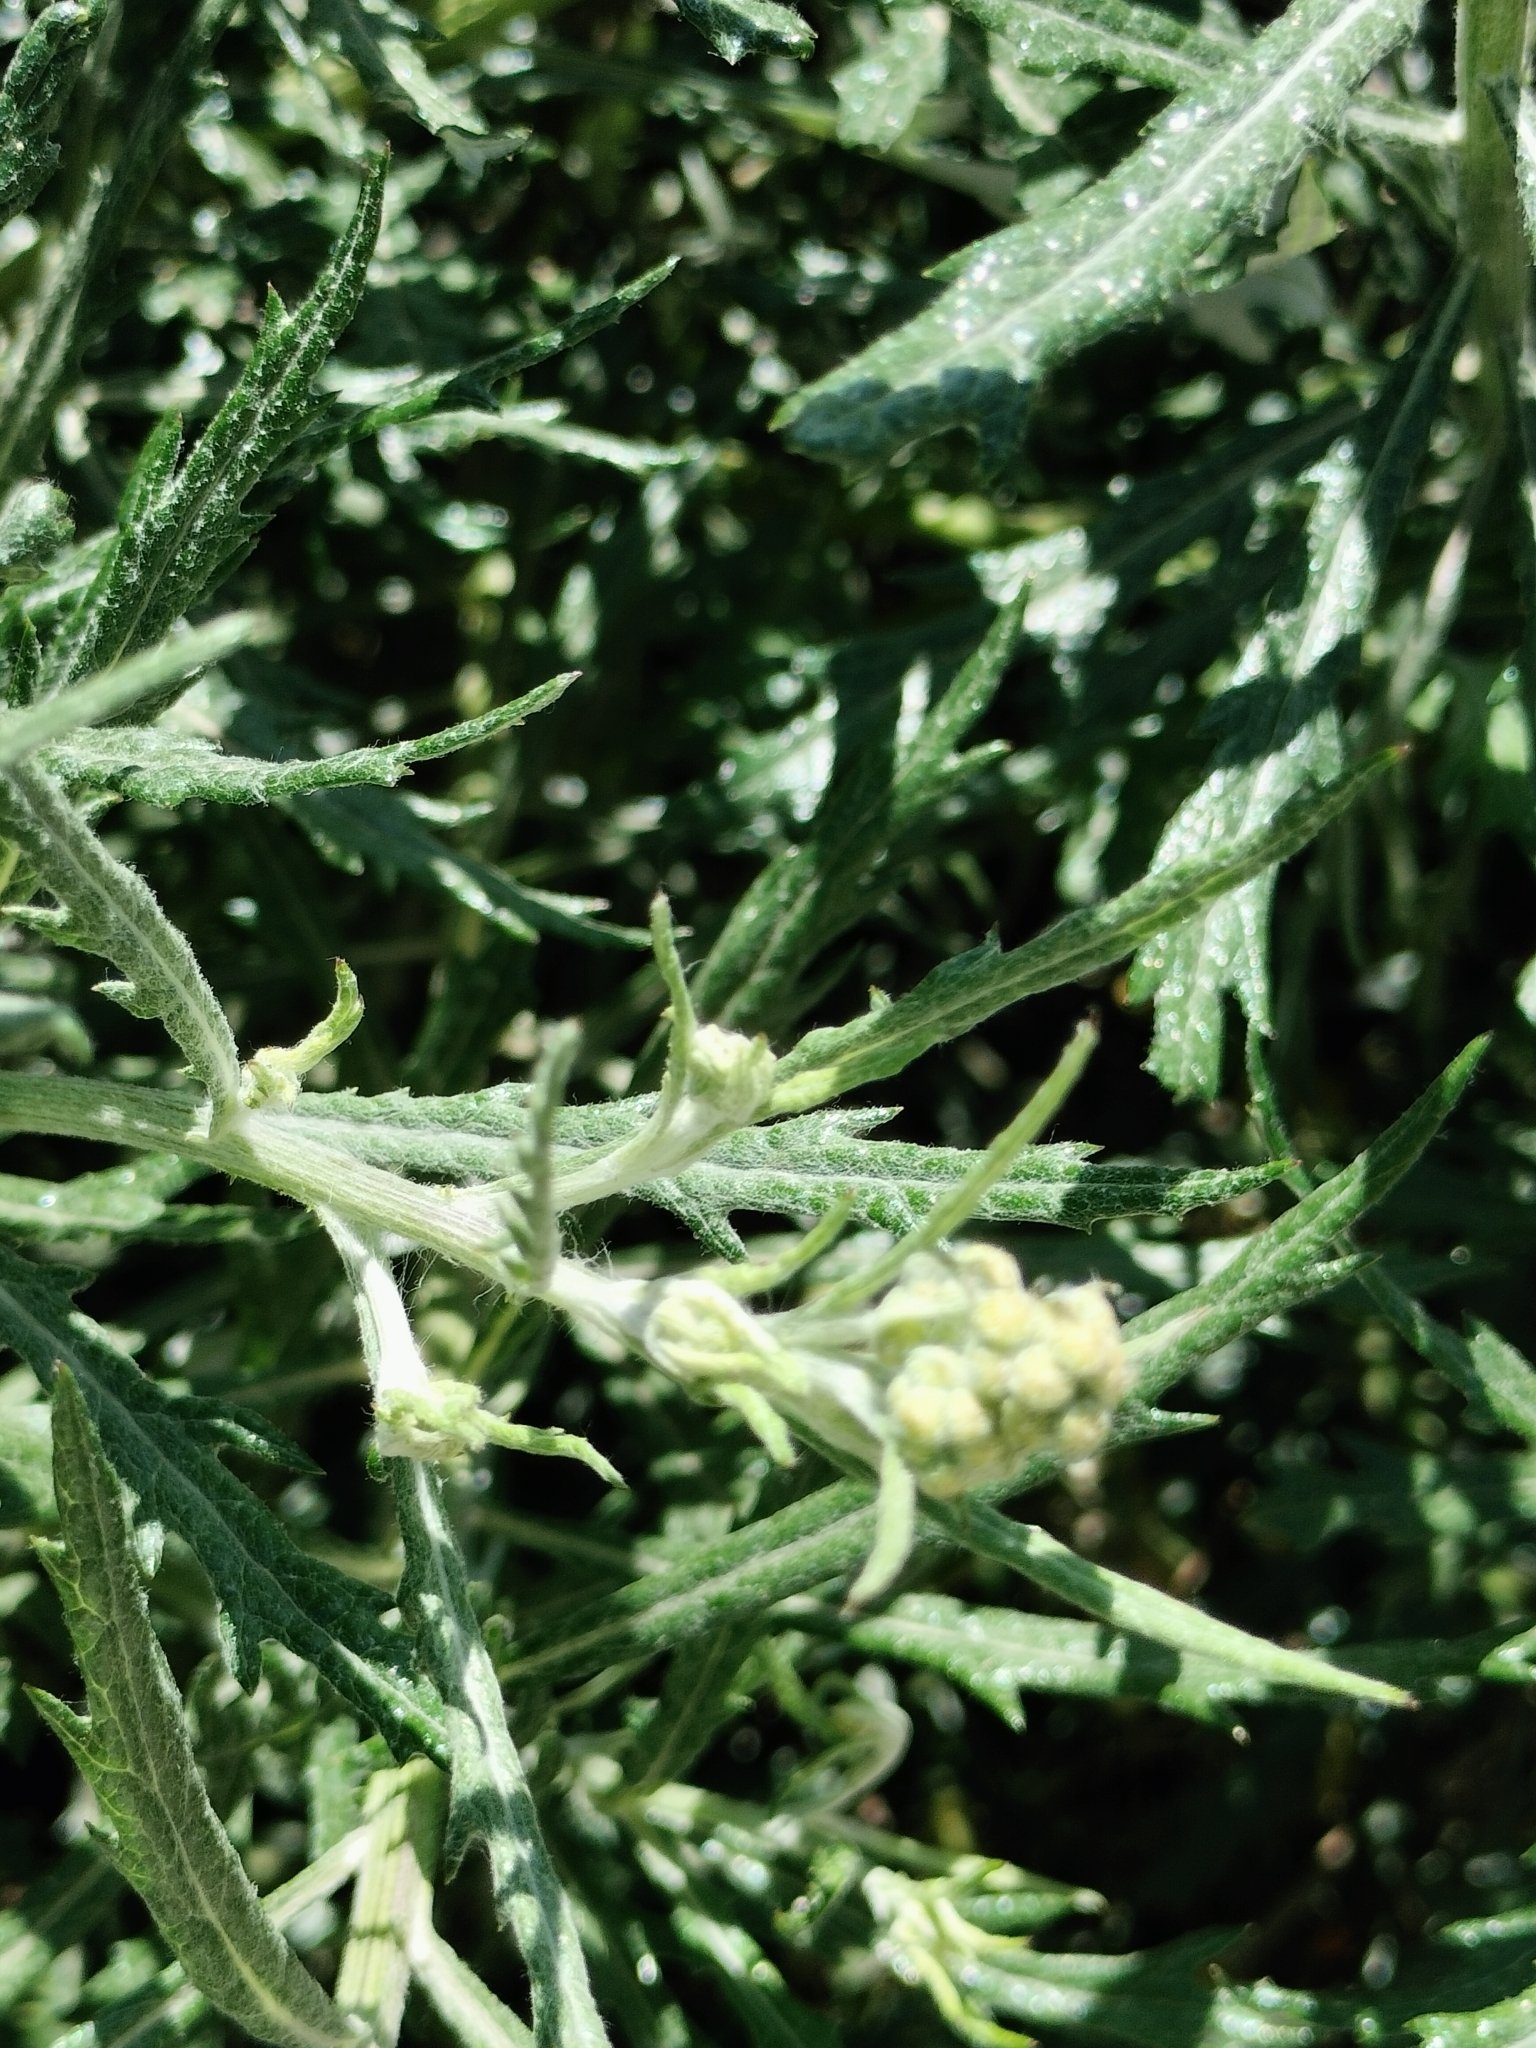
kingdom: Plantae
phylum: Tracheophyta
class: Magnoliopsida
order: Asterales
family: Asteraceae
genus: Senecio
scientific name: Senecio pterophorus
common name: Shoddy ragwort
